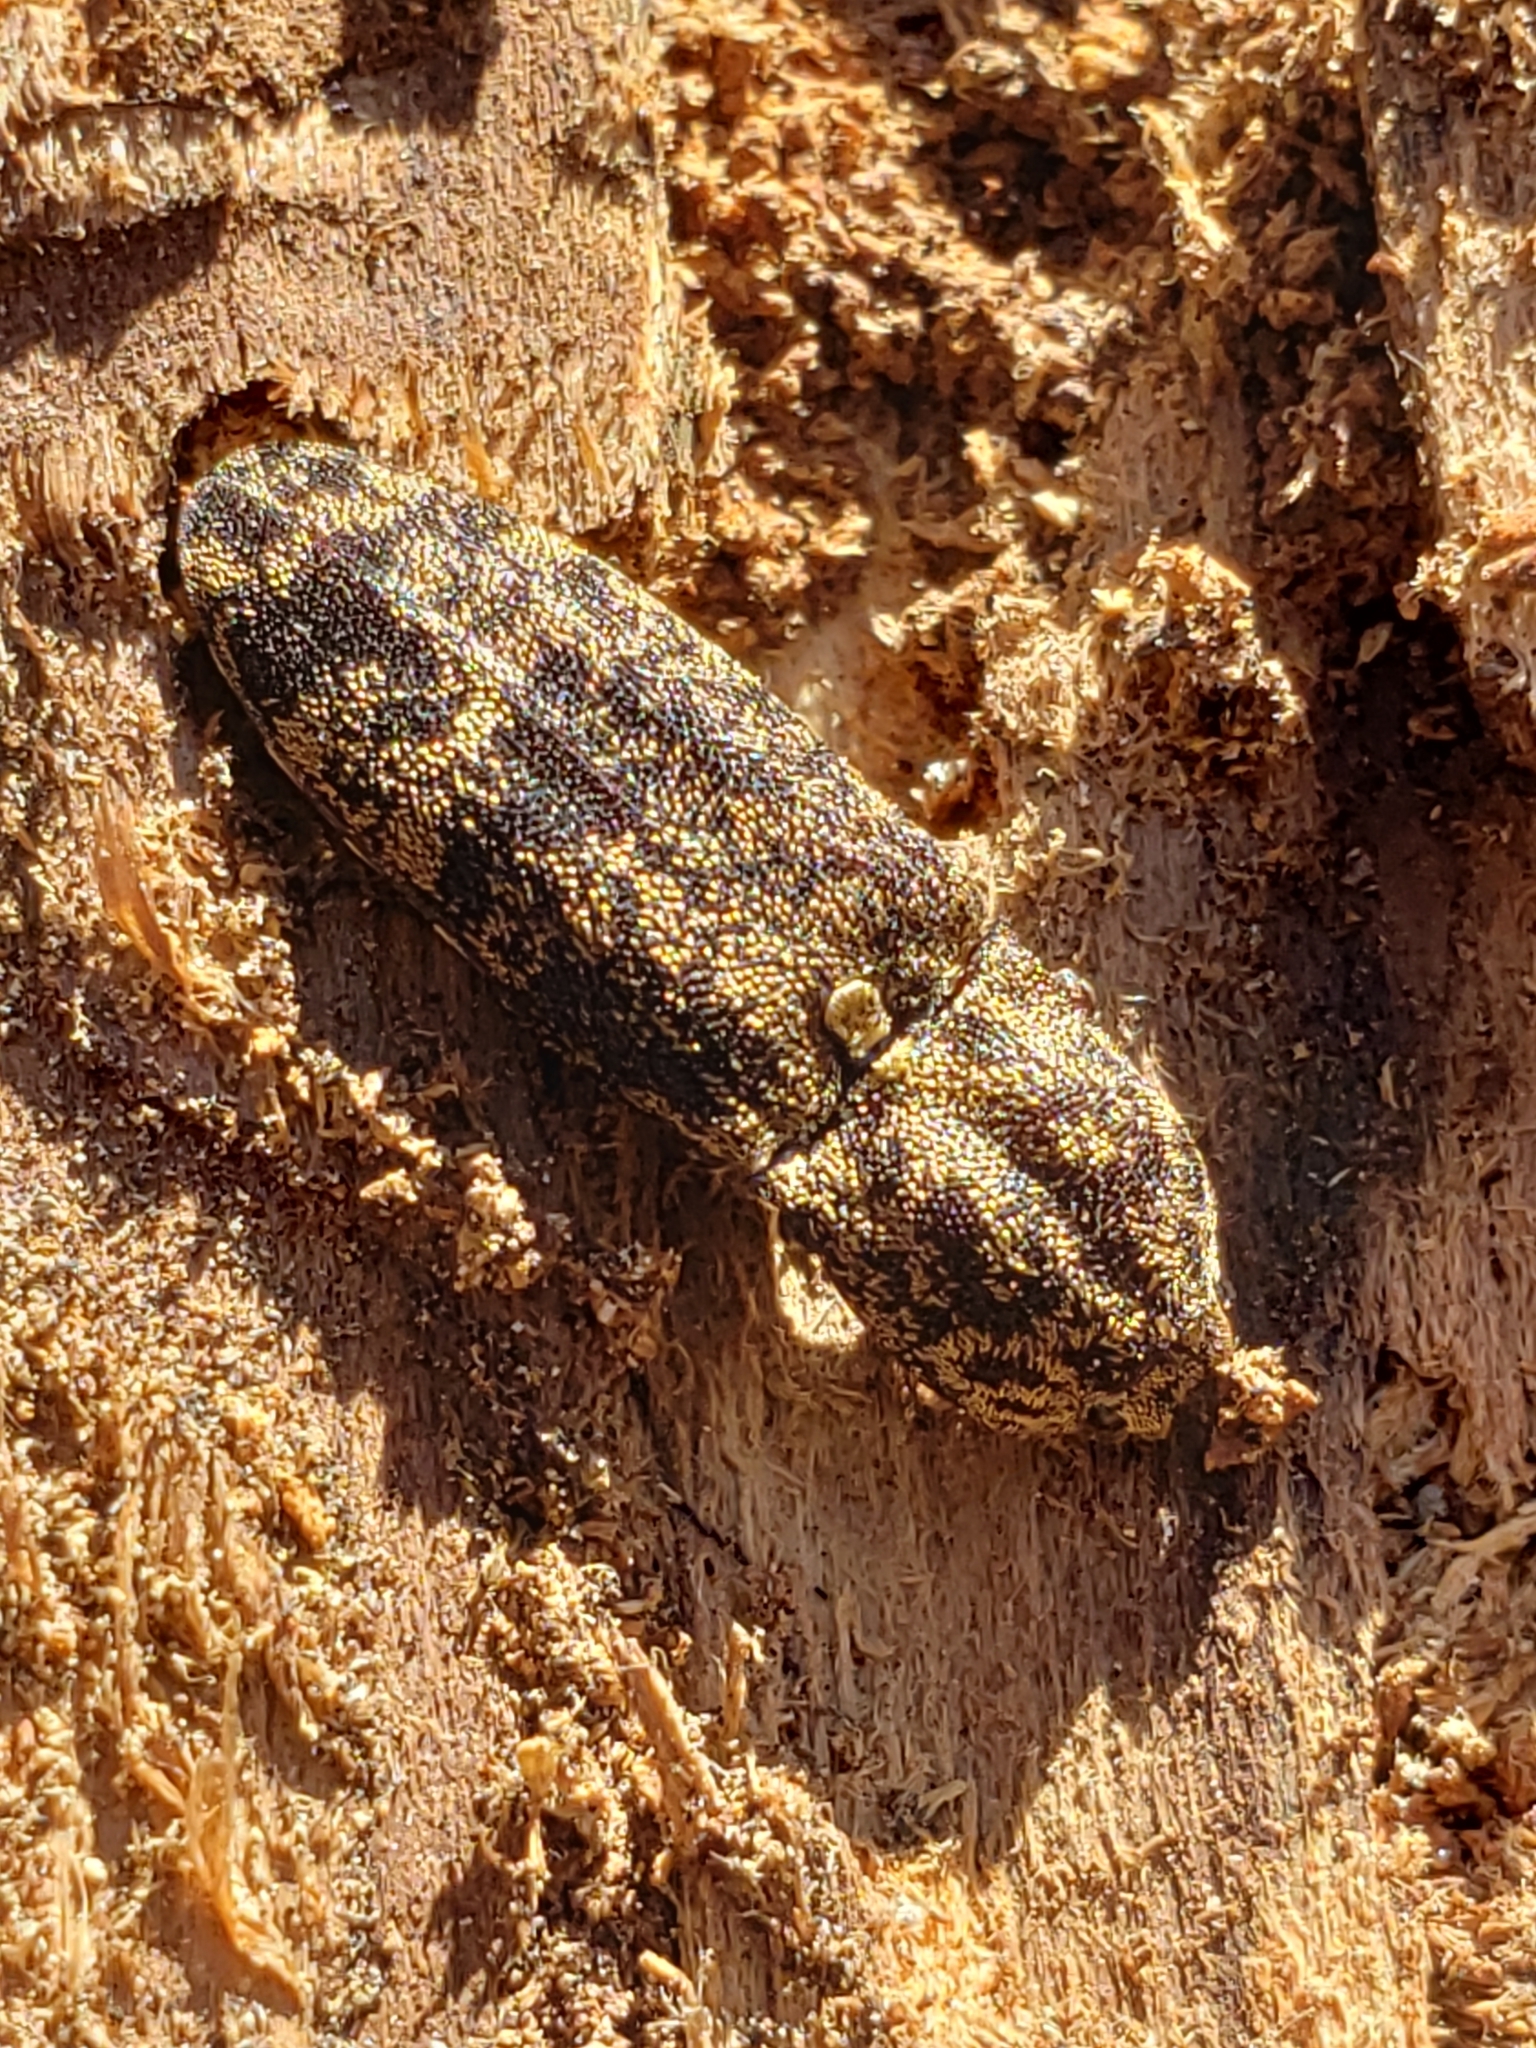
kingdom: Animalia
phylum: Arthropoda
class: Insecta
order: Coleoptera
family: Elateridae
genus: Lacon
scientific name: Lacon marmoratus
